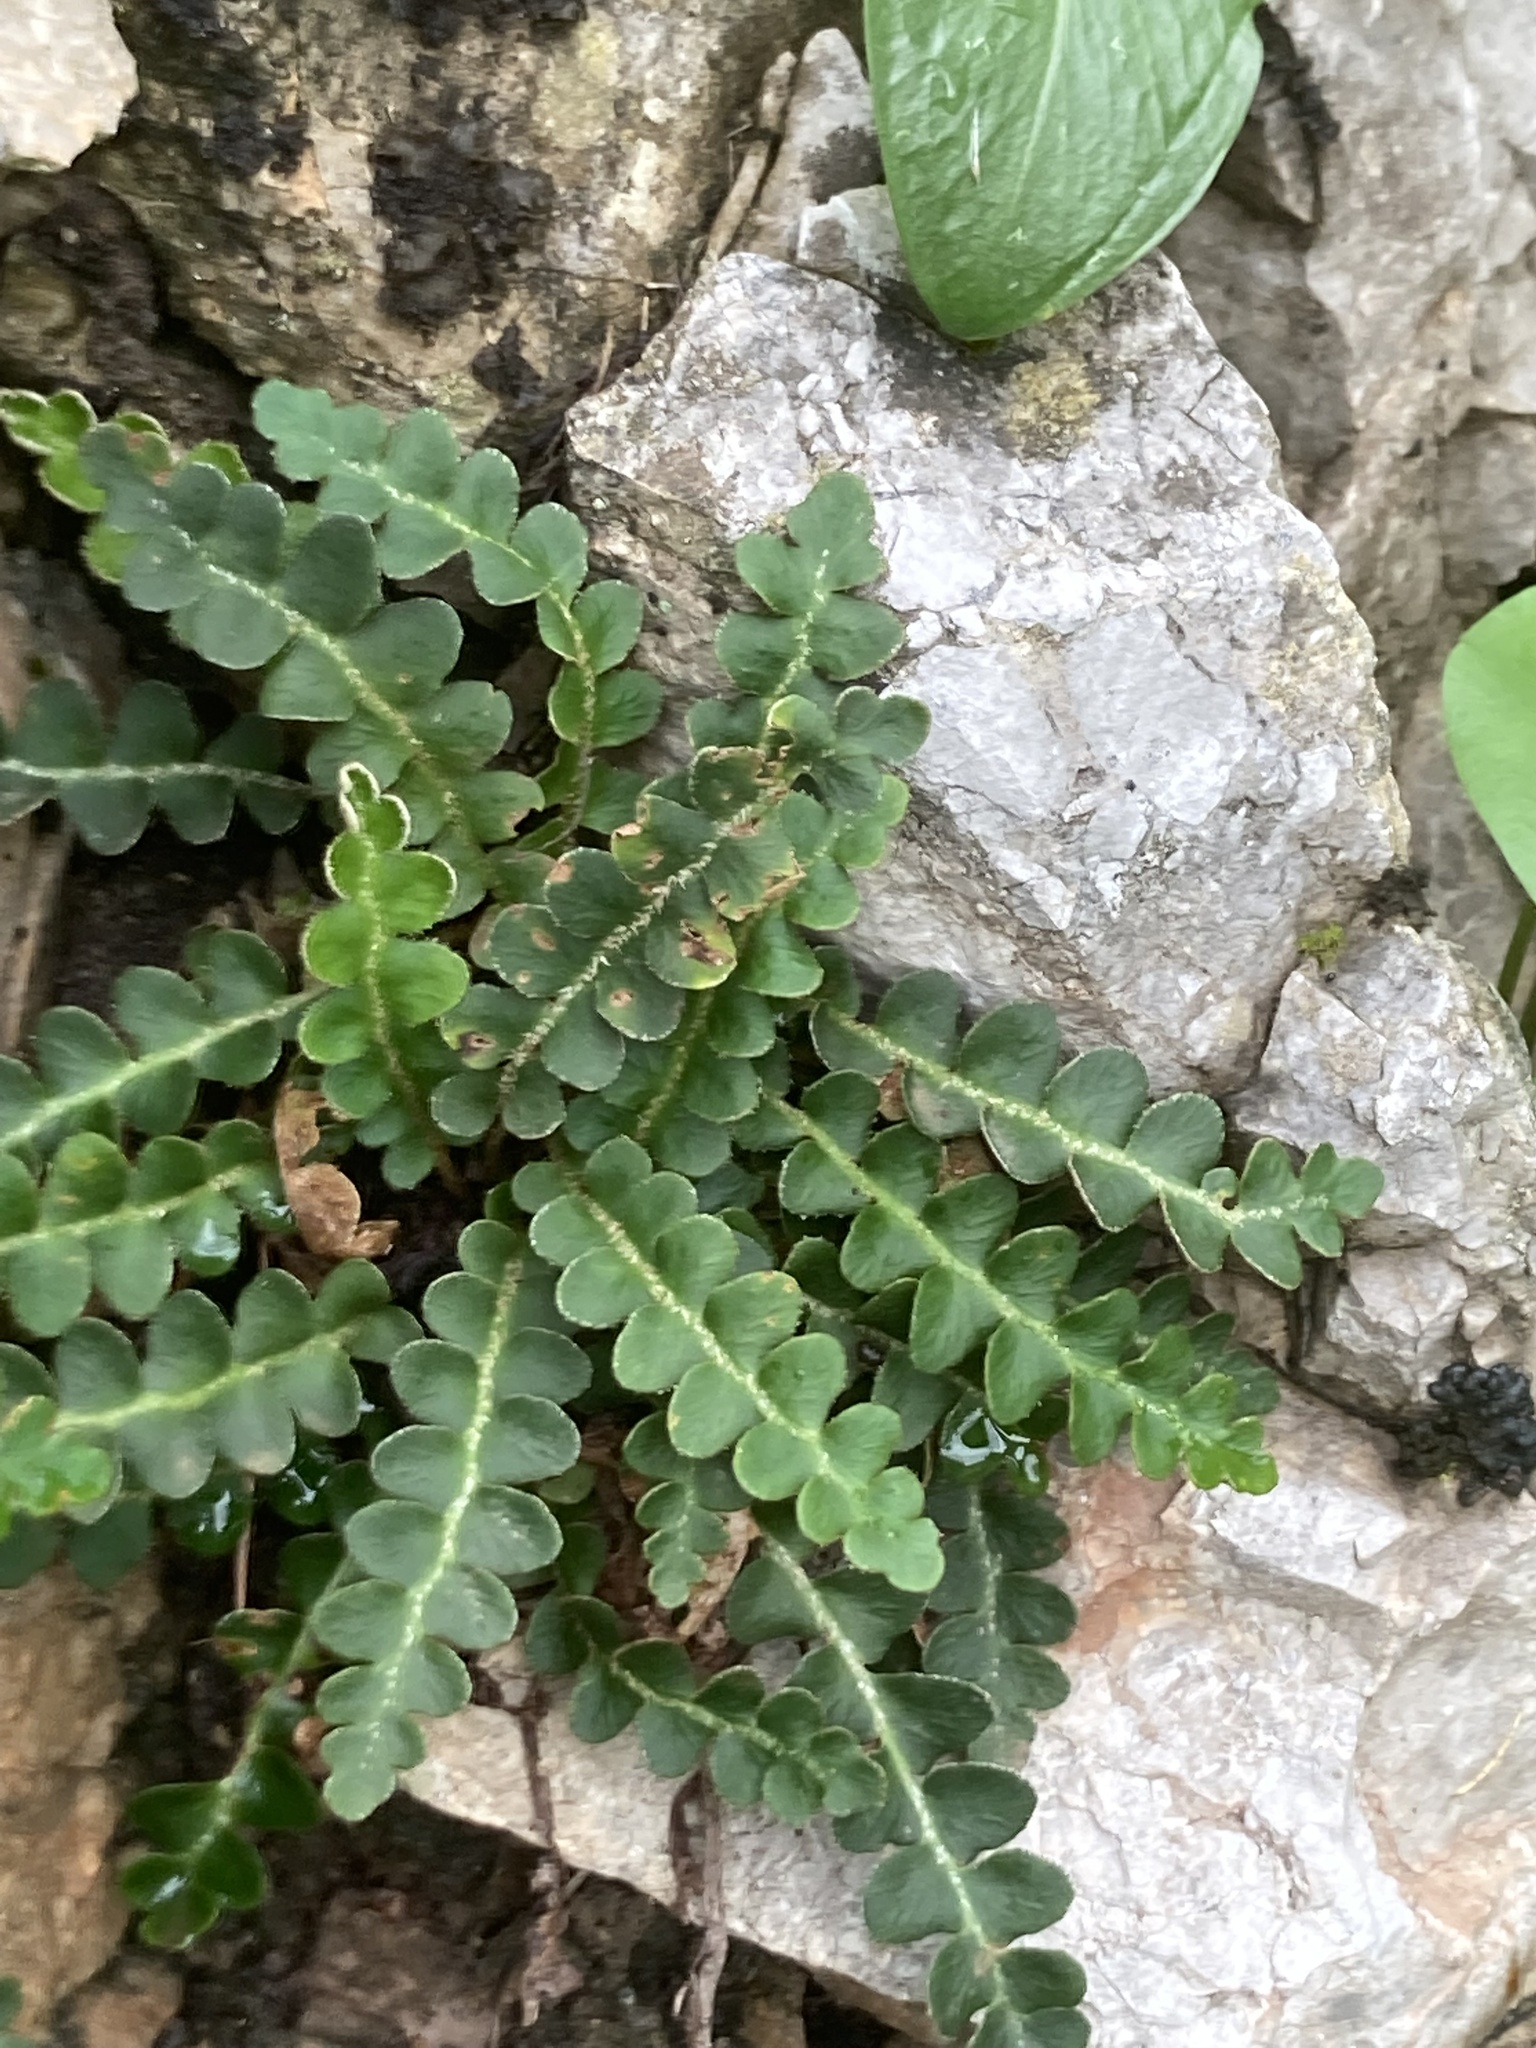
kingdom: Plantae
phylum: Tracheophyta
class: Polypodiopsida
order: Polypodiales
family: Aspleniaceae
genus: Asplenium
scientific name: Asplenium ceterach
